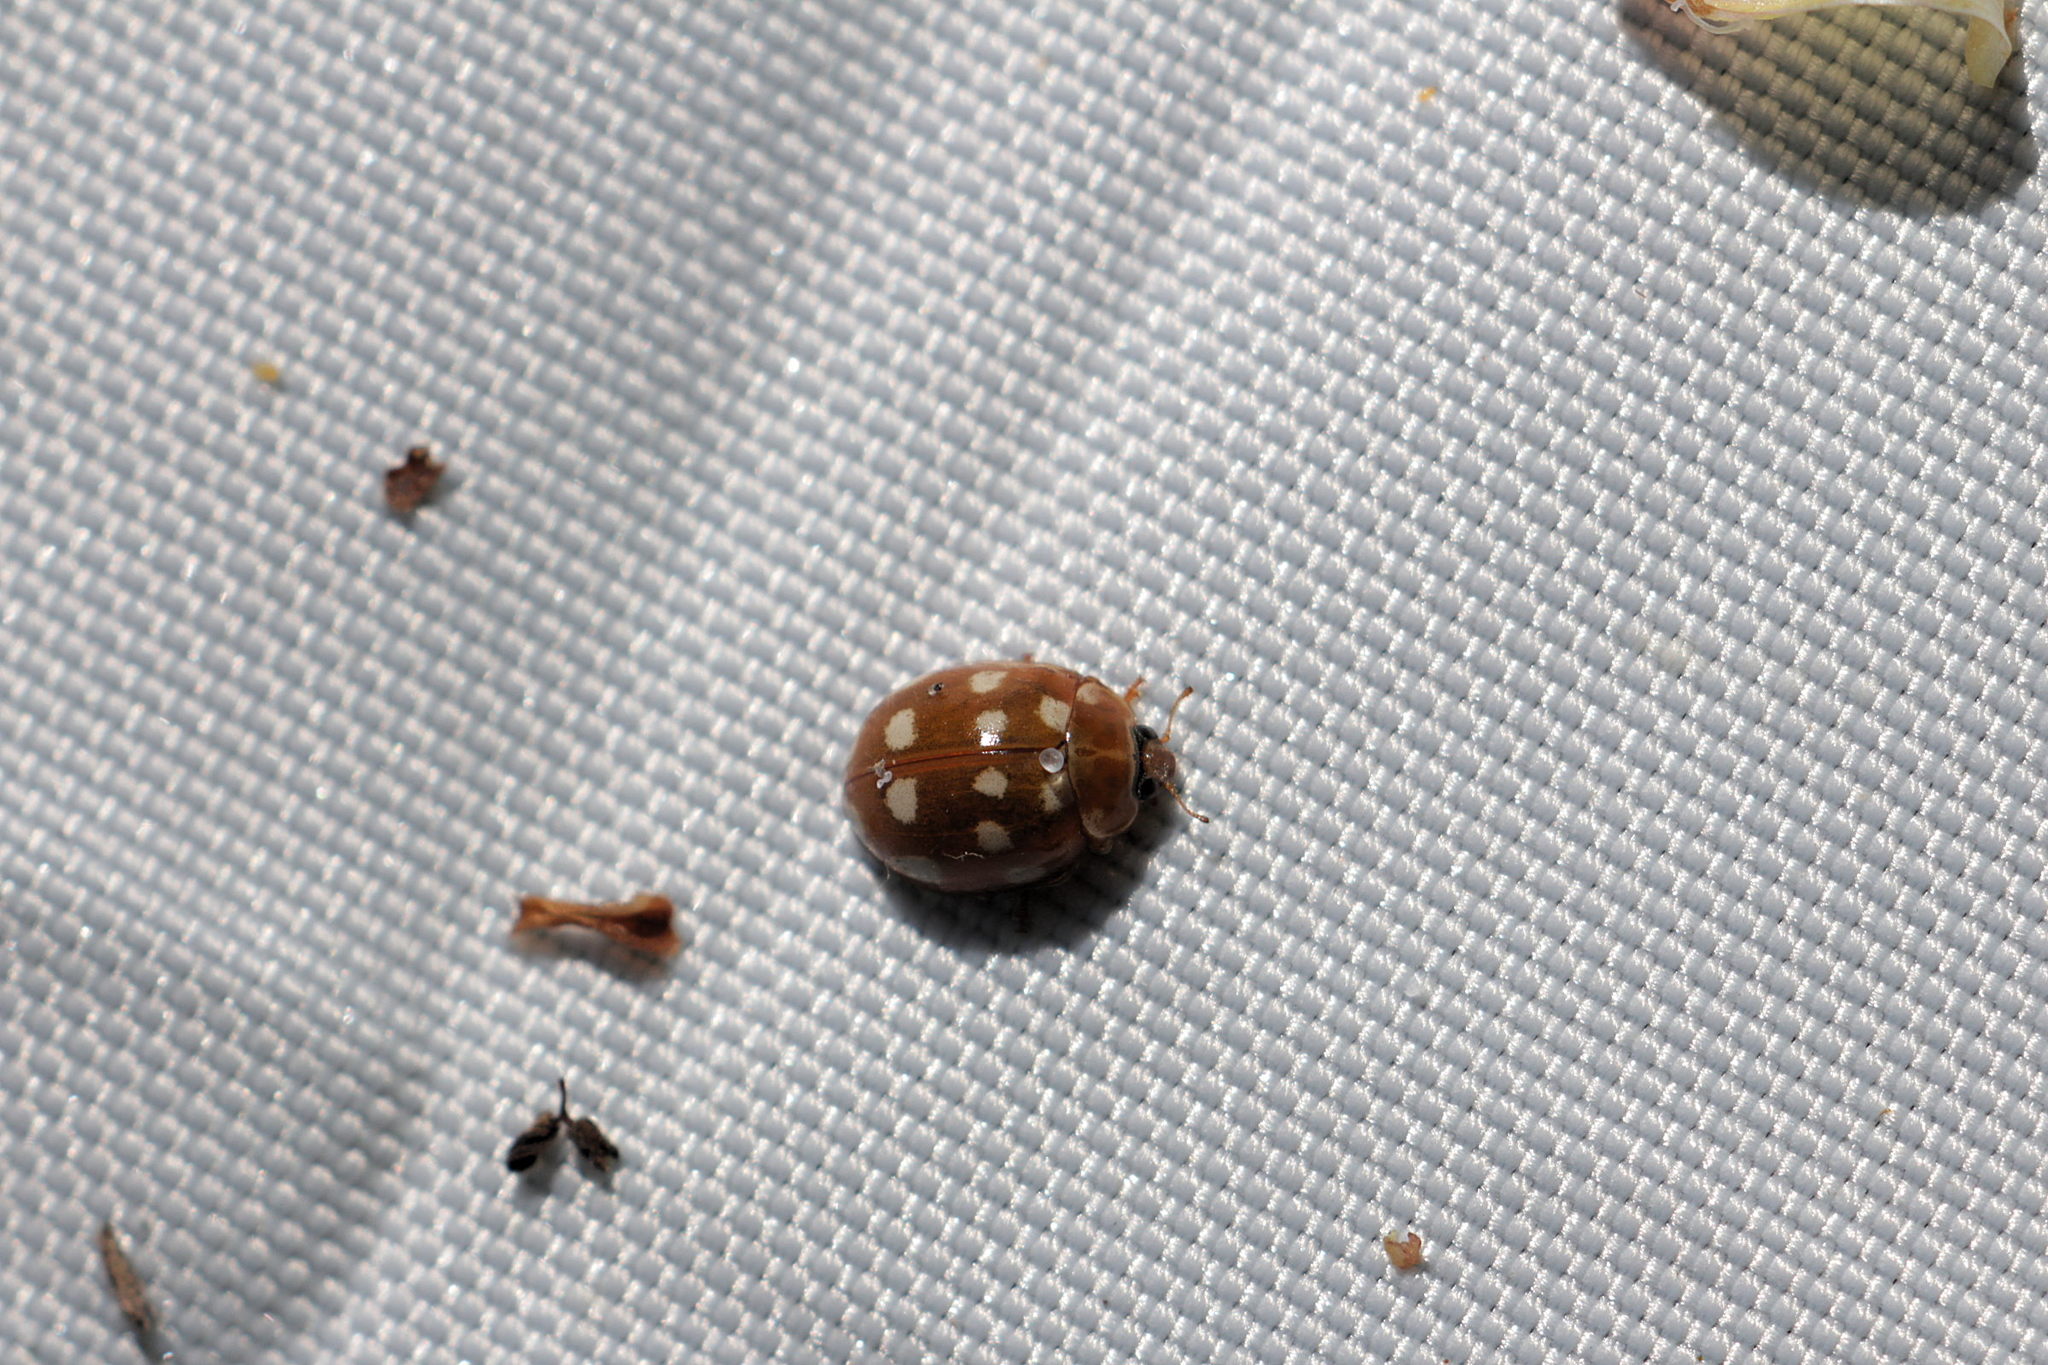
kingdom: Animalia
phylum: Arthropoda
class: Insecta
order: Coleoptera
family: Coccinellidae
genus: Calvia
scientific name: Calvia quatuordecimguttata
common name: Cream-spot ladybird
